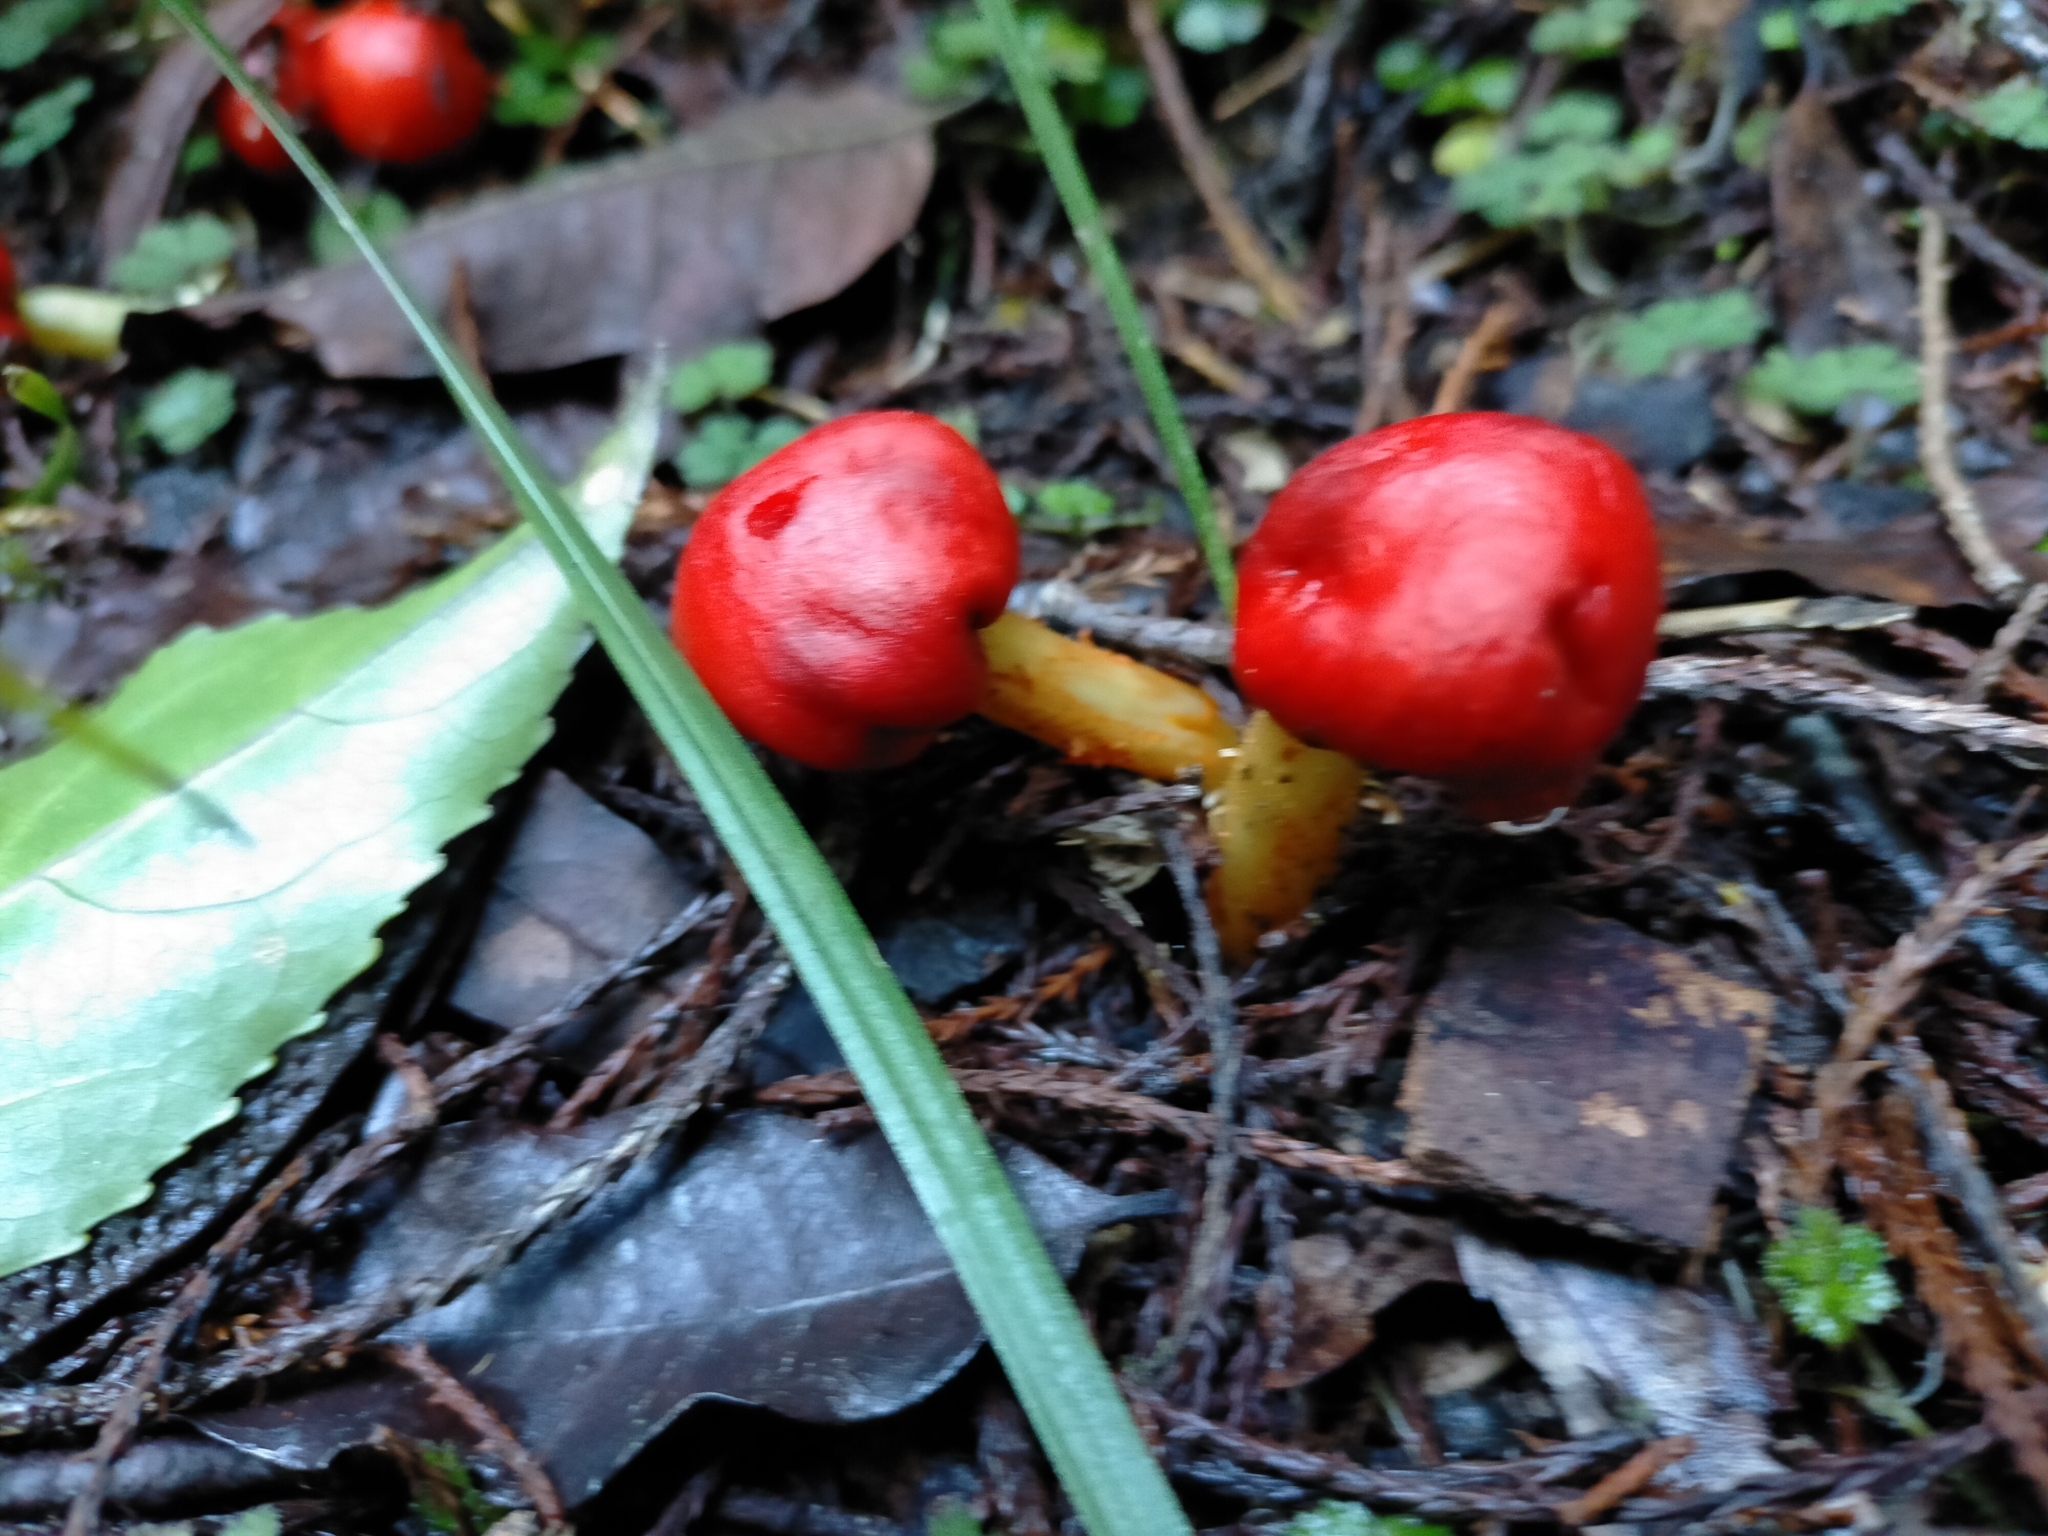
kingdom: Fungi
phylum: Basidiomycota
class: Agaricomycetes
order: Agaricales
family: Strophariaceae
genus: Leratiomyces
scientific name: Leratiomyces erythrocephalus
